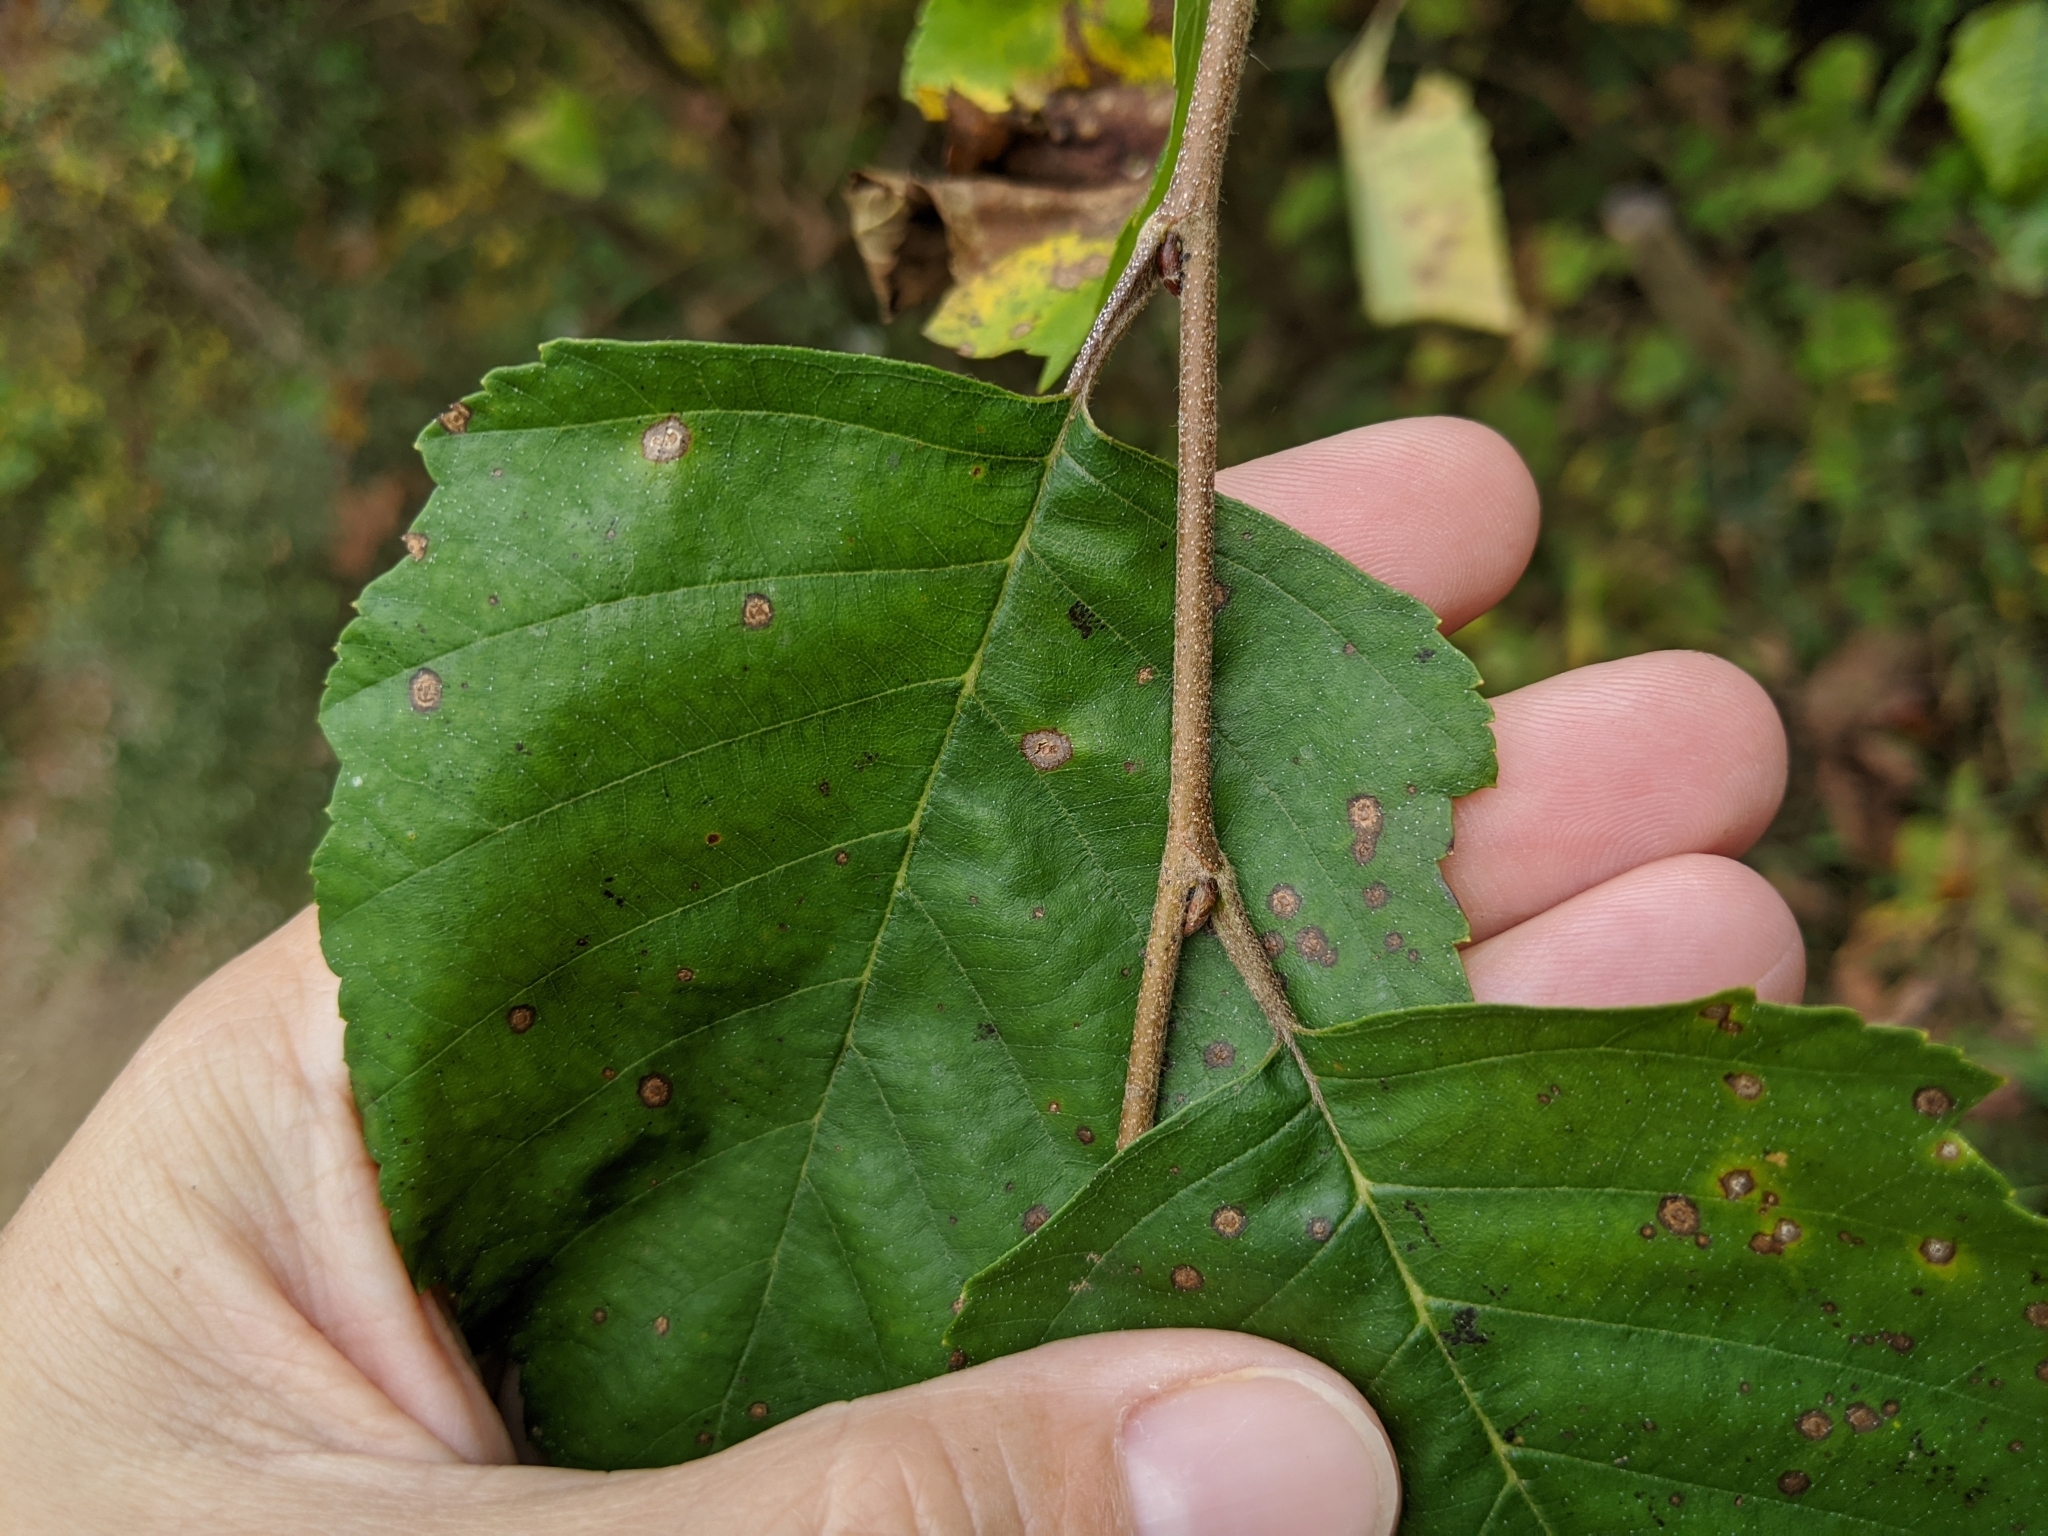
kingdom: Plantae
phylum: Tracheophyta
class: Magnoliopsida
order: Fagales
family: Betulaceae
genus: Betula
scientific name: Betula nigra
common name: Black birch
